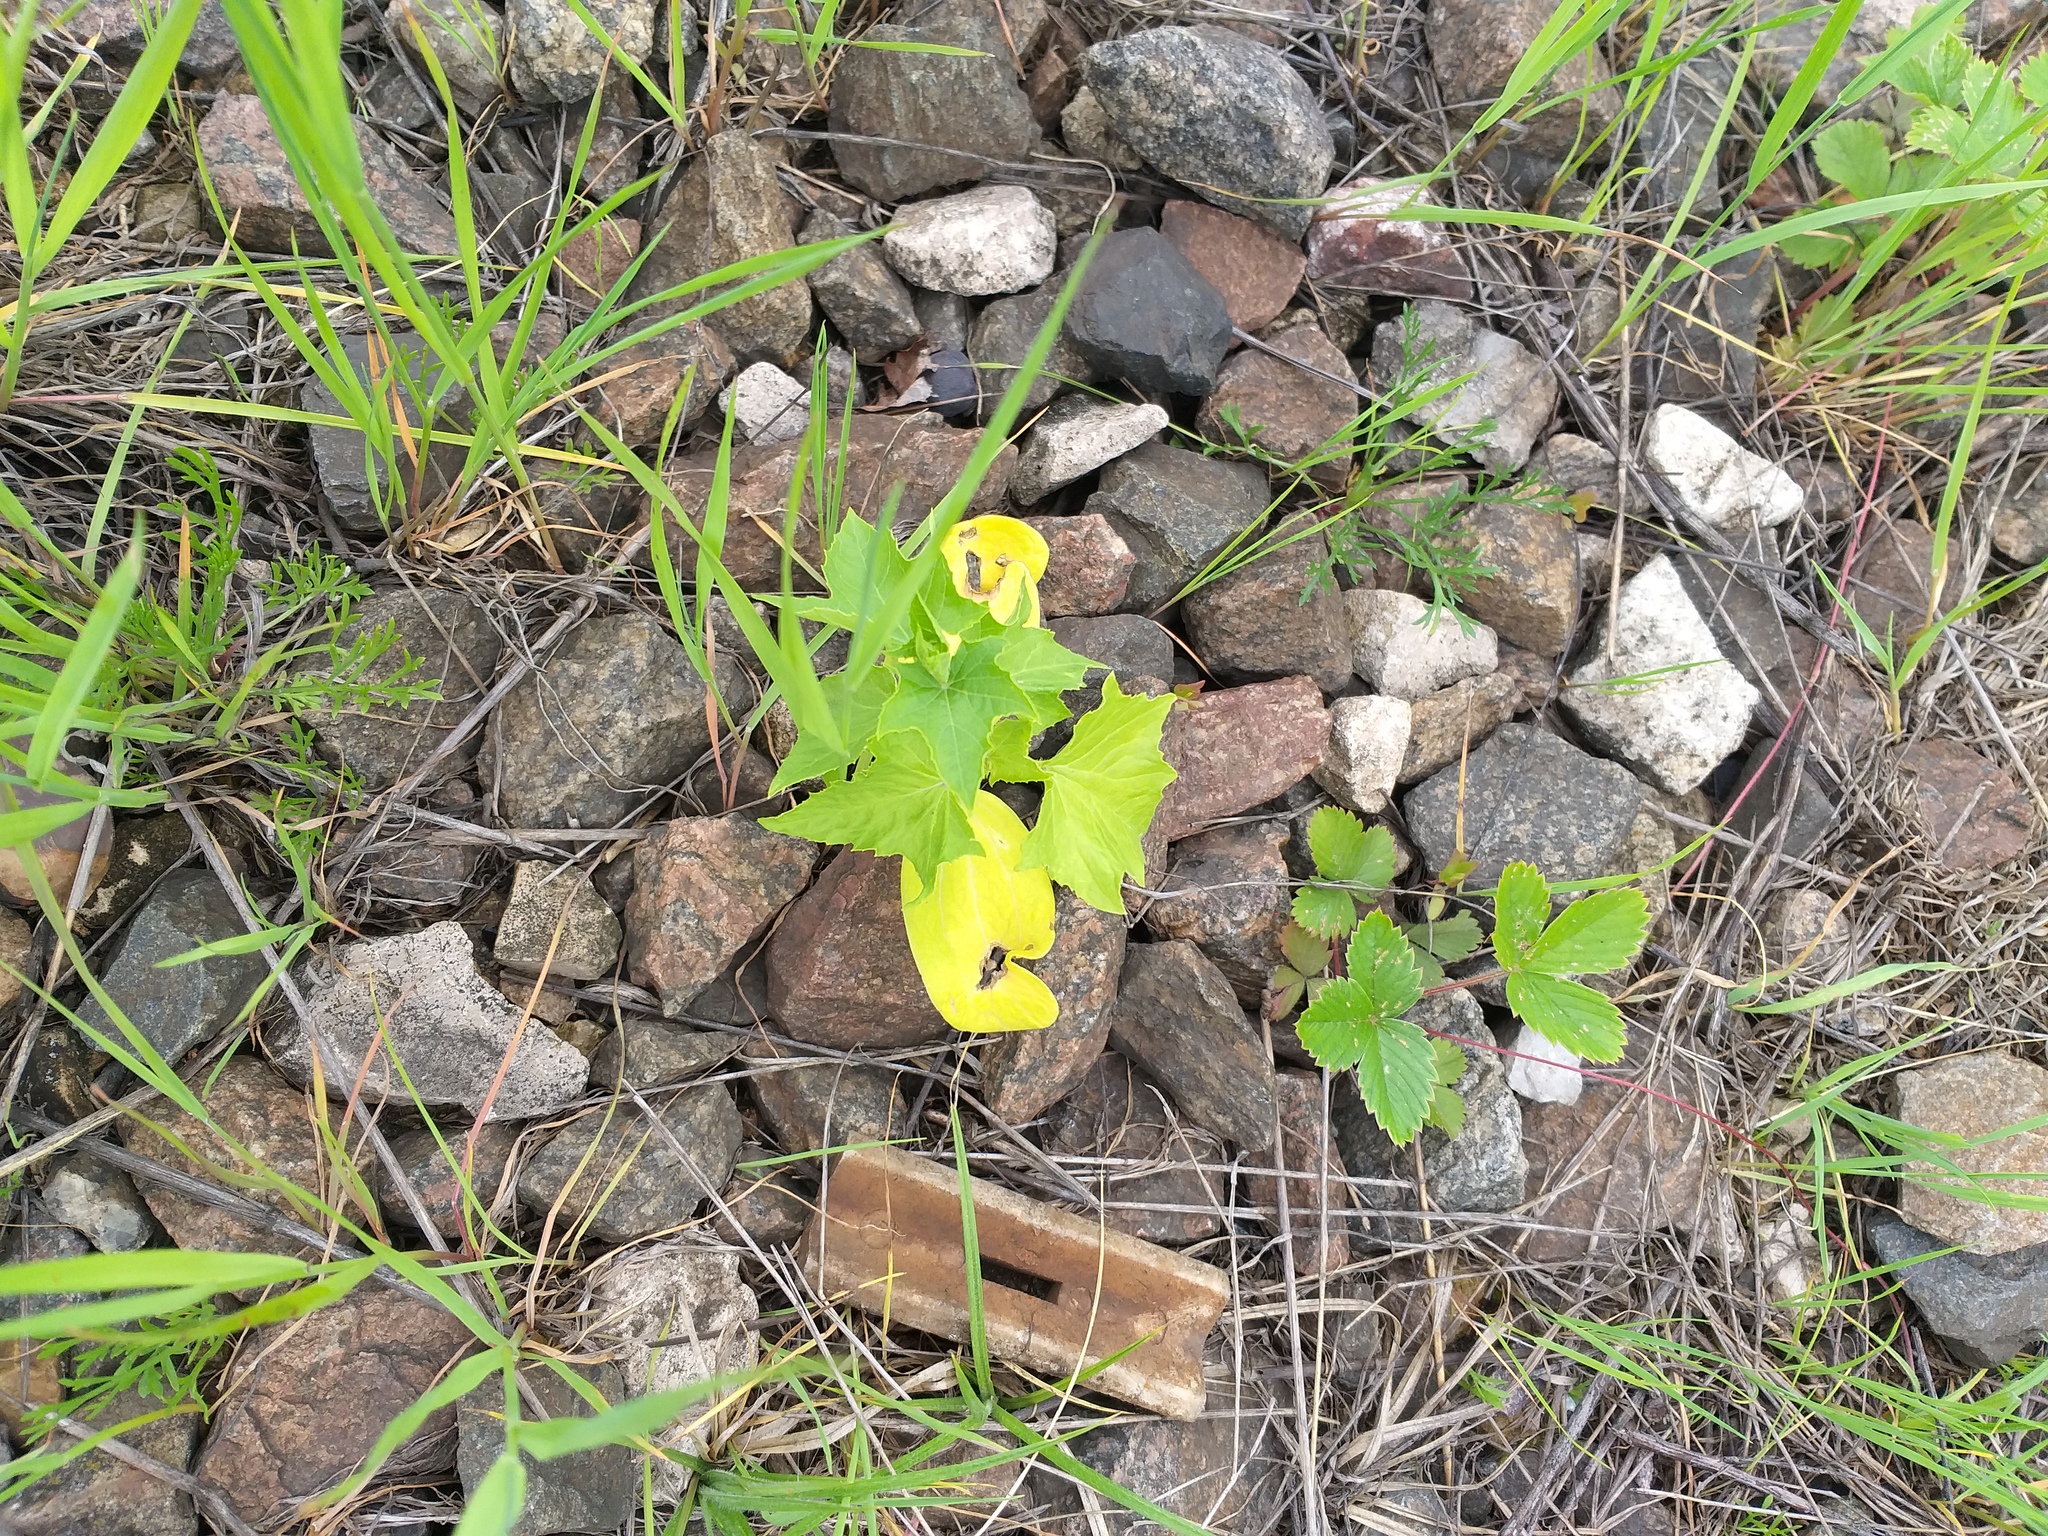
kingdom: Plantae
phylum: Tracheophyta
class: Magnoliopsida
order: Cucurbitales
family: Cucurbitaceae
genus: Echinocystis
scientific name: Echinocystis lobata
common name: Wild cucumber
